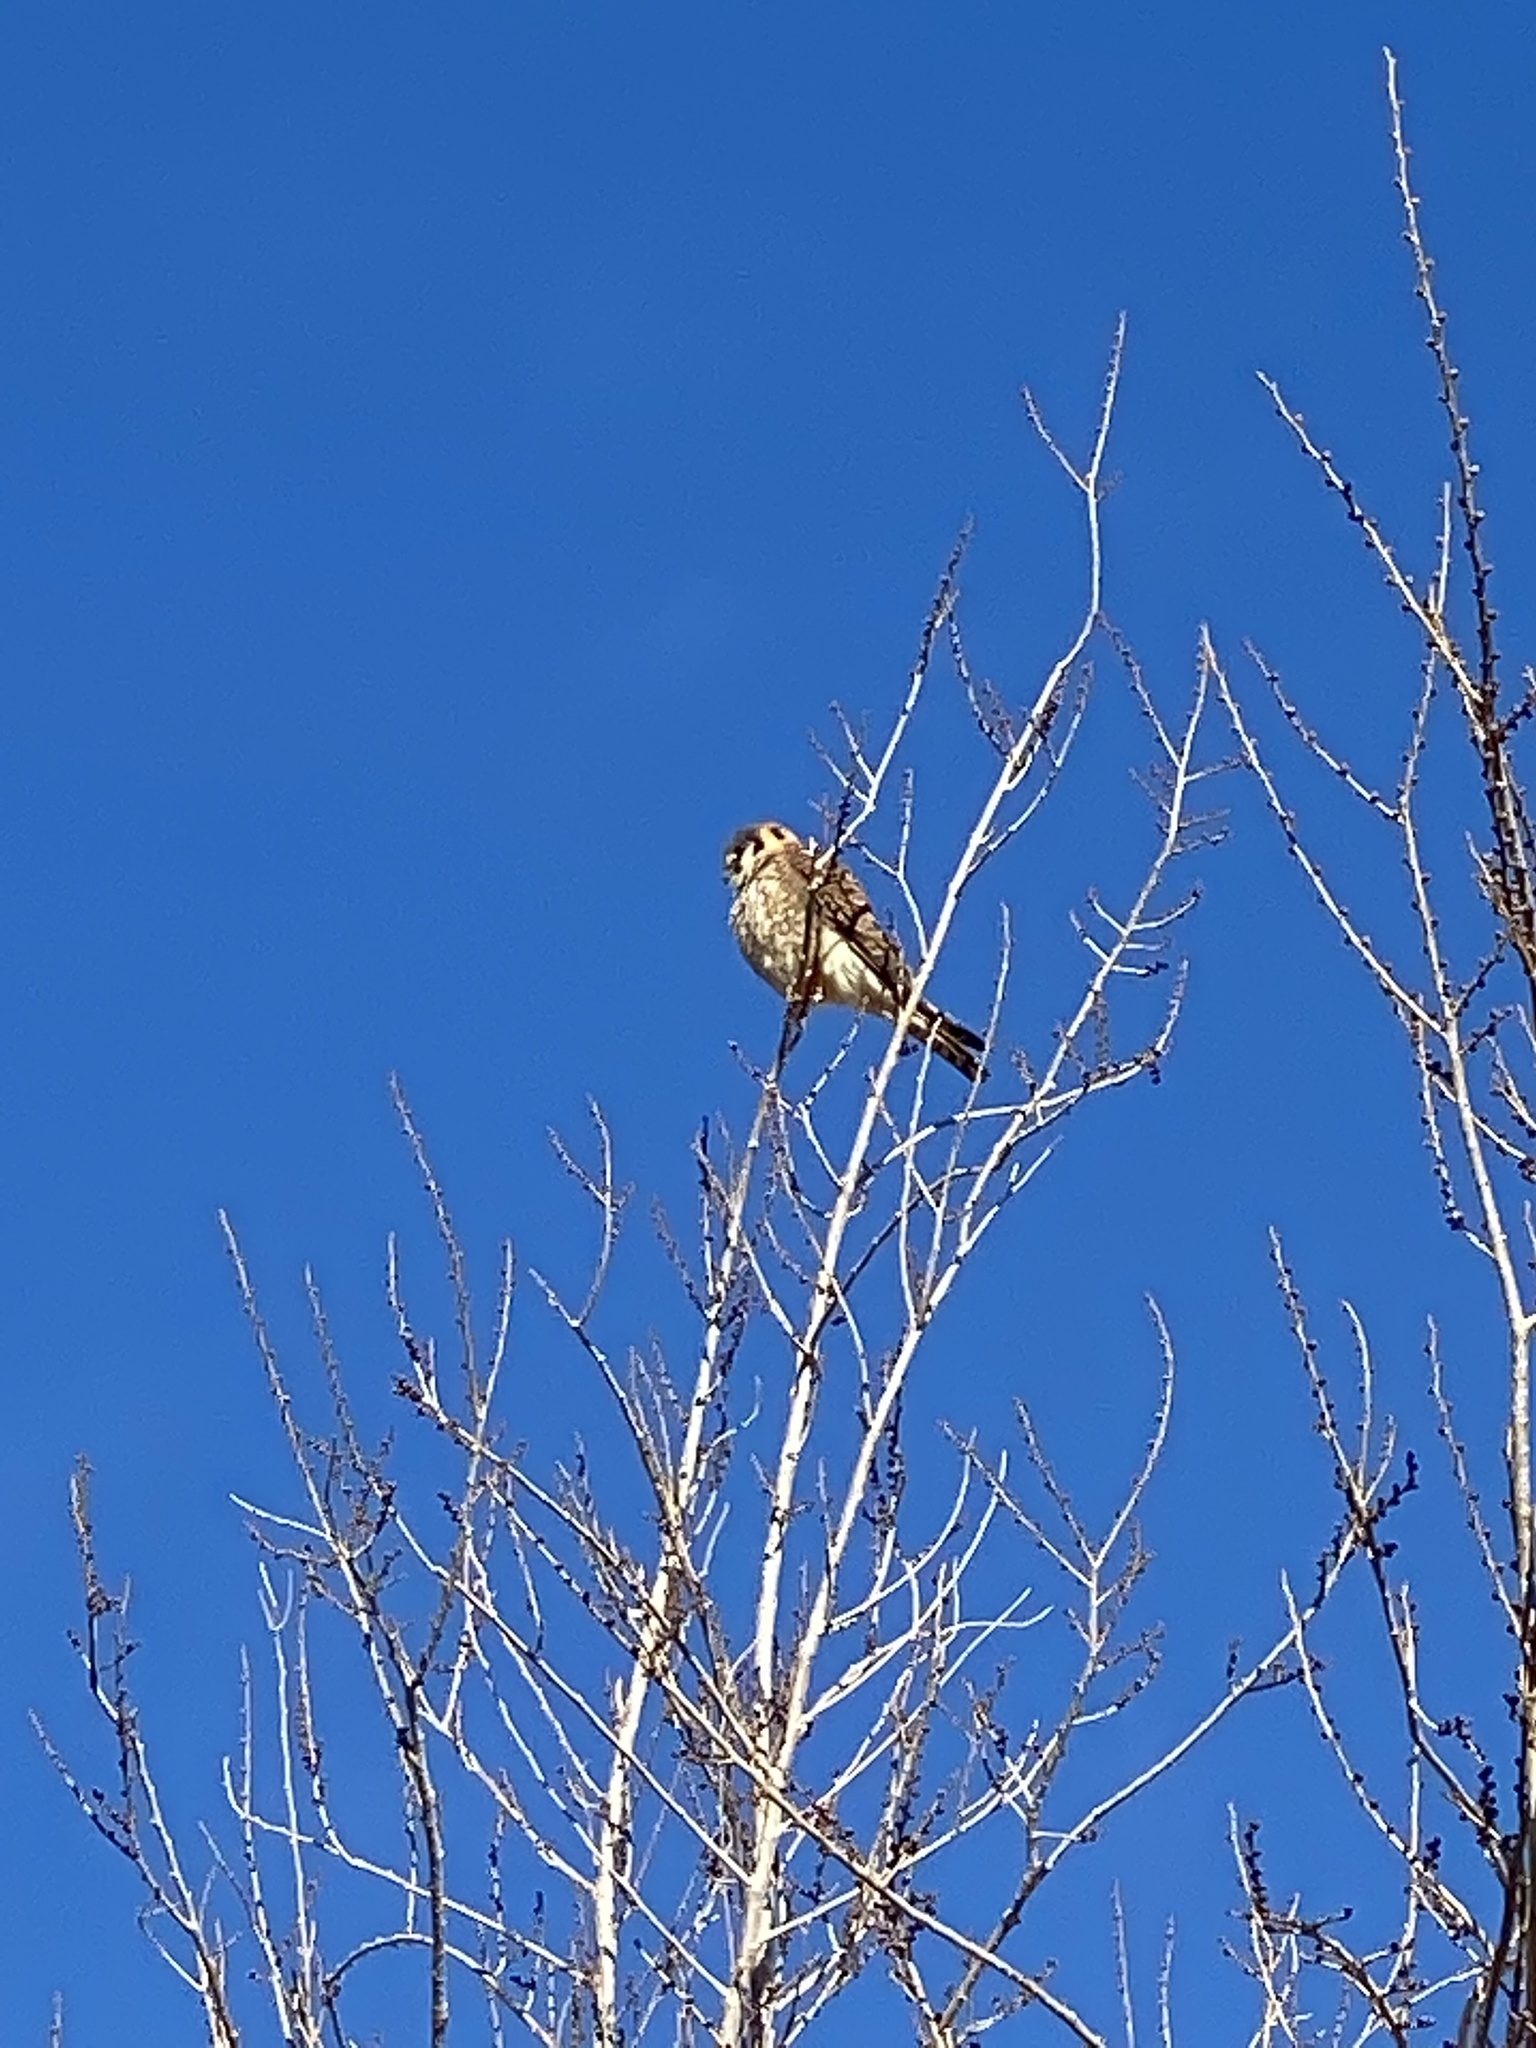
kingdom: Animalia
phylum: Chordata
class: Aves
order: Falconiformes
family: Falconidae
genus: Falco
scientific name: Falco sparverius
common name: American kestrel
